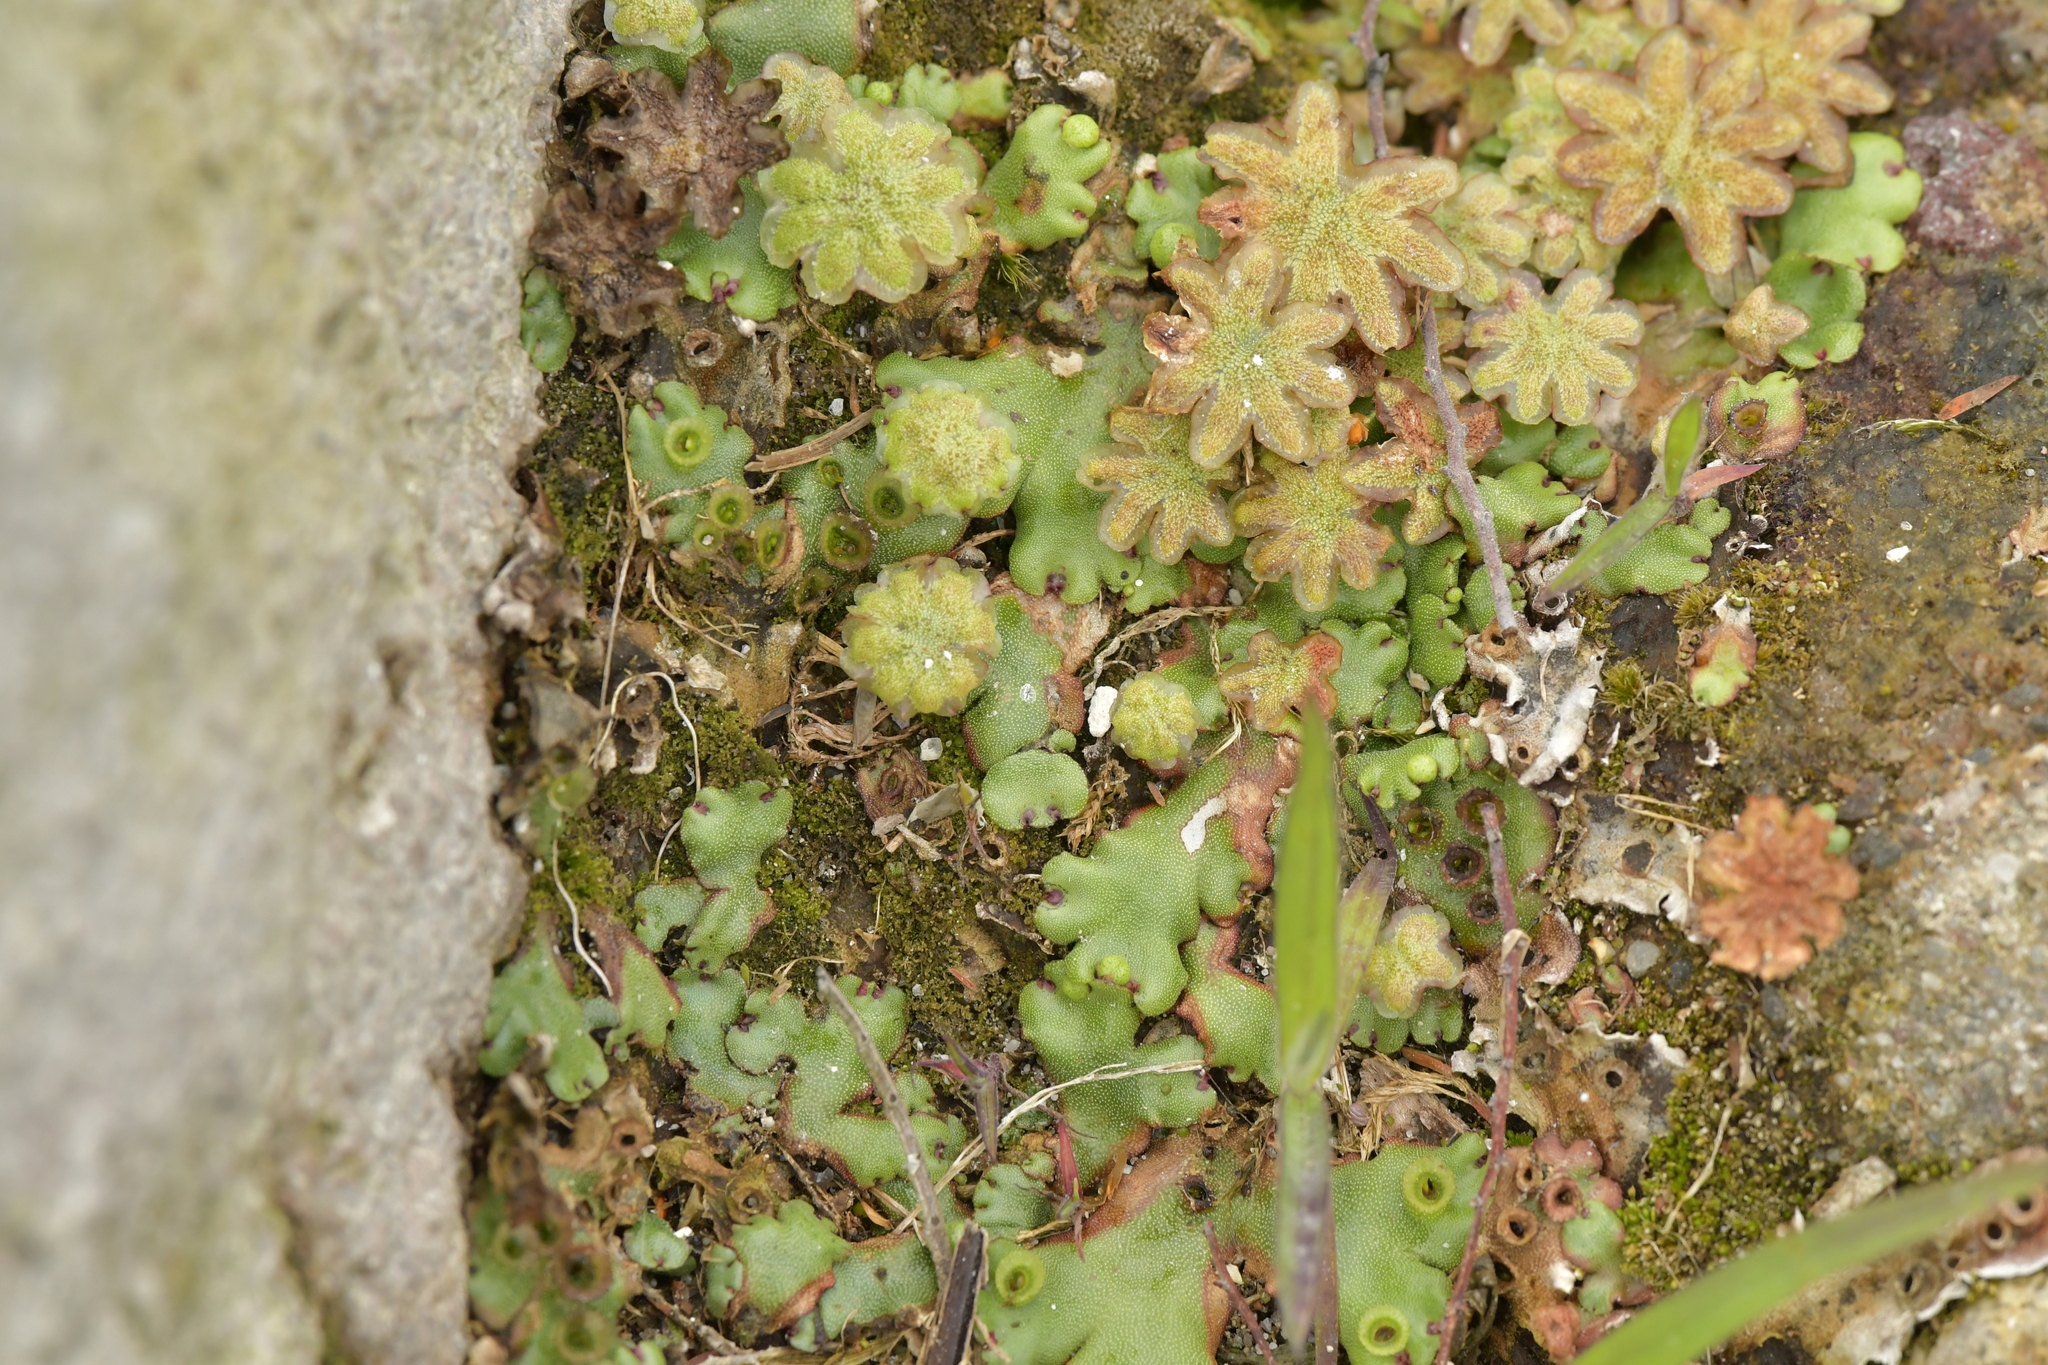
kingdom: Plantae
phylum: Marchantiophyta
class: Marchantiopsida
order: Marchantiales
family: Marchantiaceae
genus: Marchantia
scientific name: Marchantia berteroana
